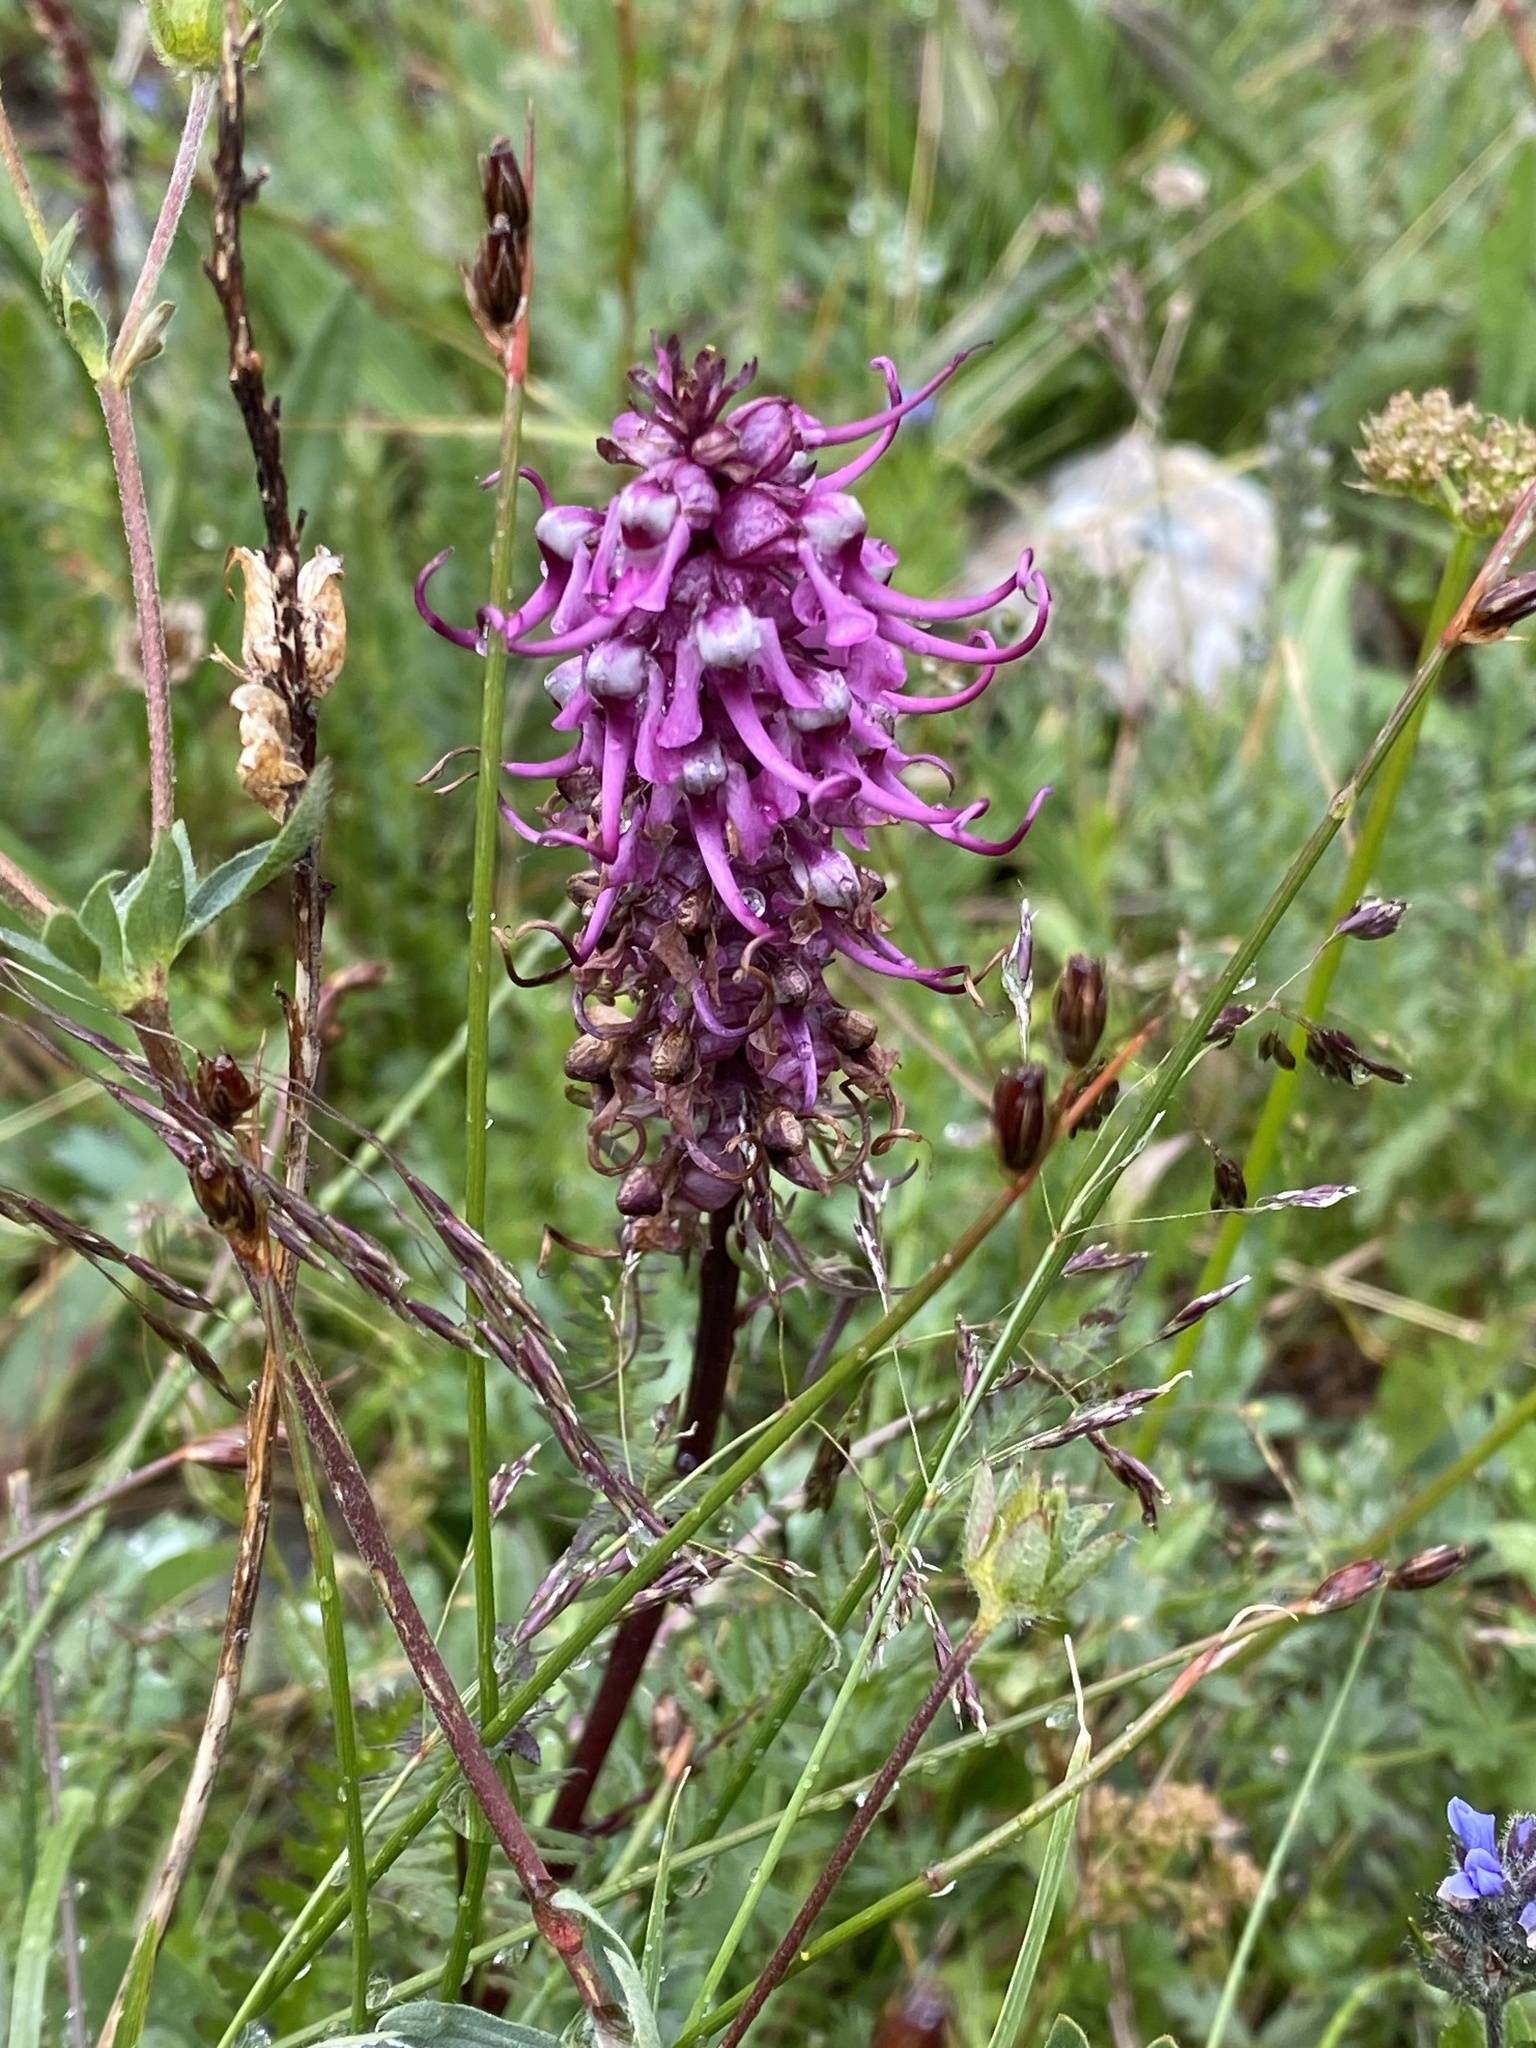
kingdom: Plantae
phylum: Tracheophyta
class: Magnoliopsida
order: Lamiales
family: Orobanchaceae
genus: Pedicularis
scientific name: Pedicularis groenlandica
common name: Elephant's-head
